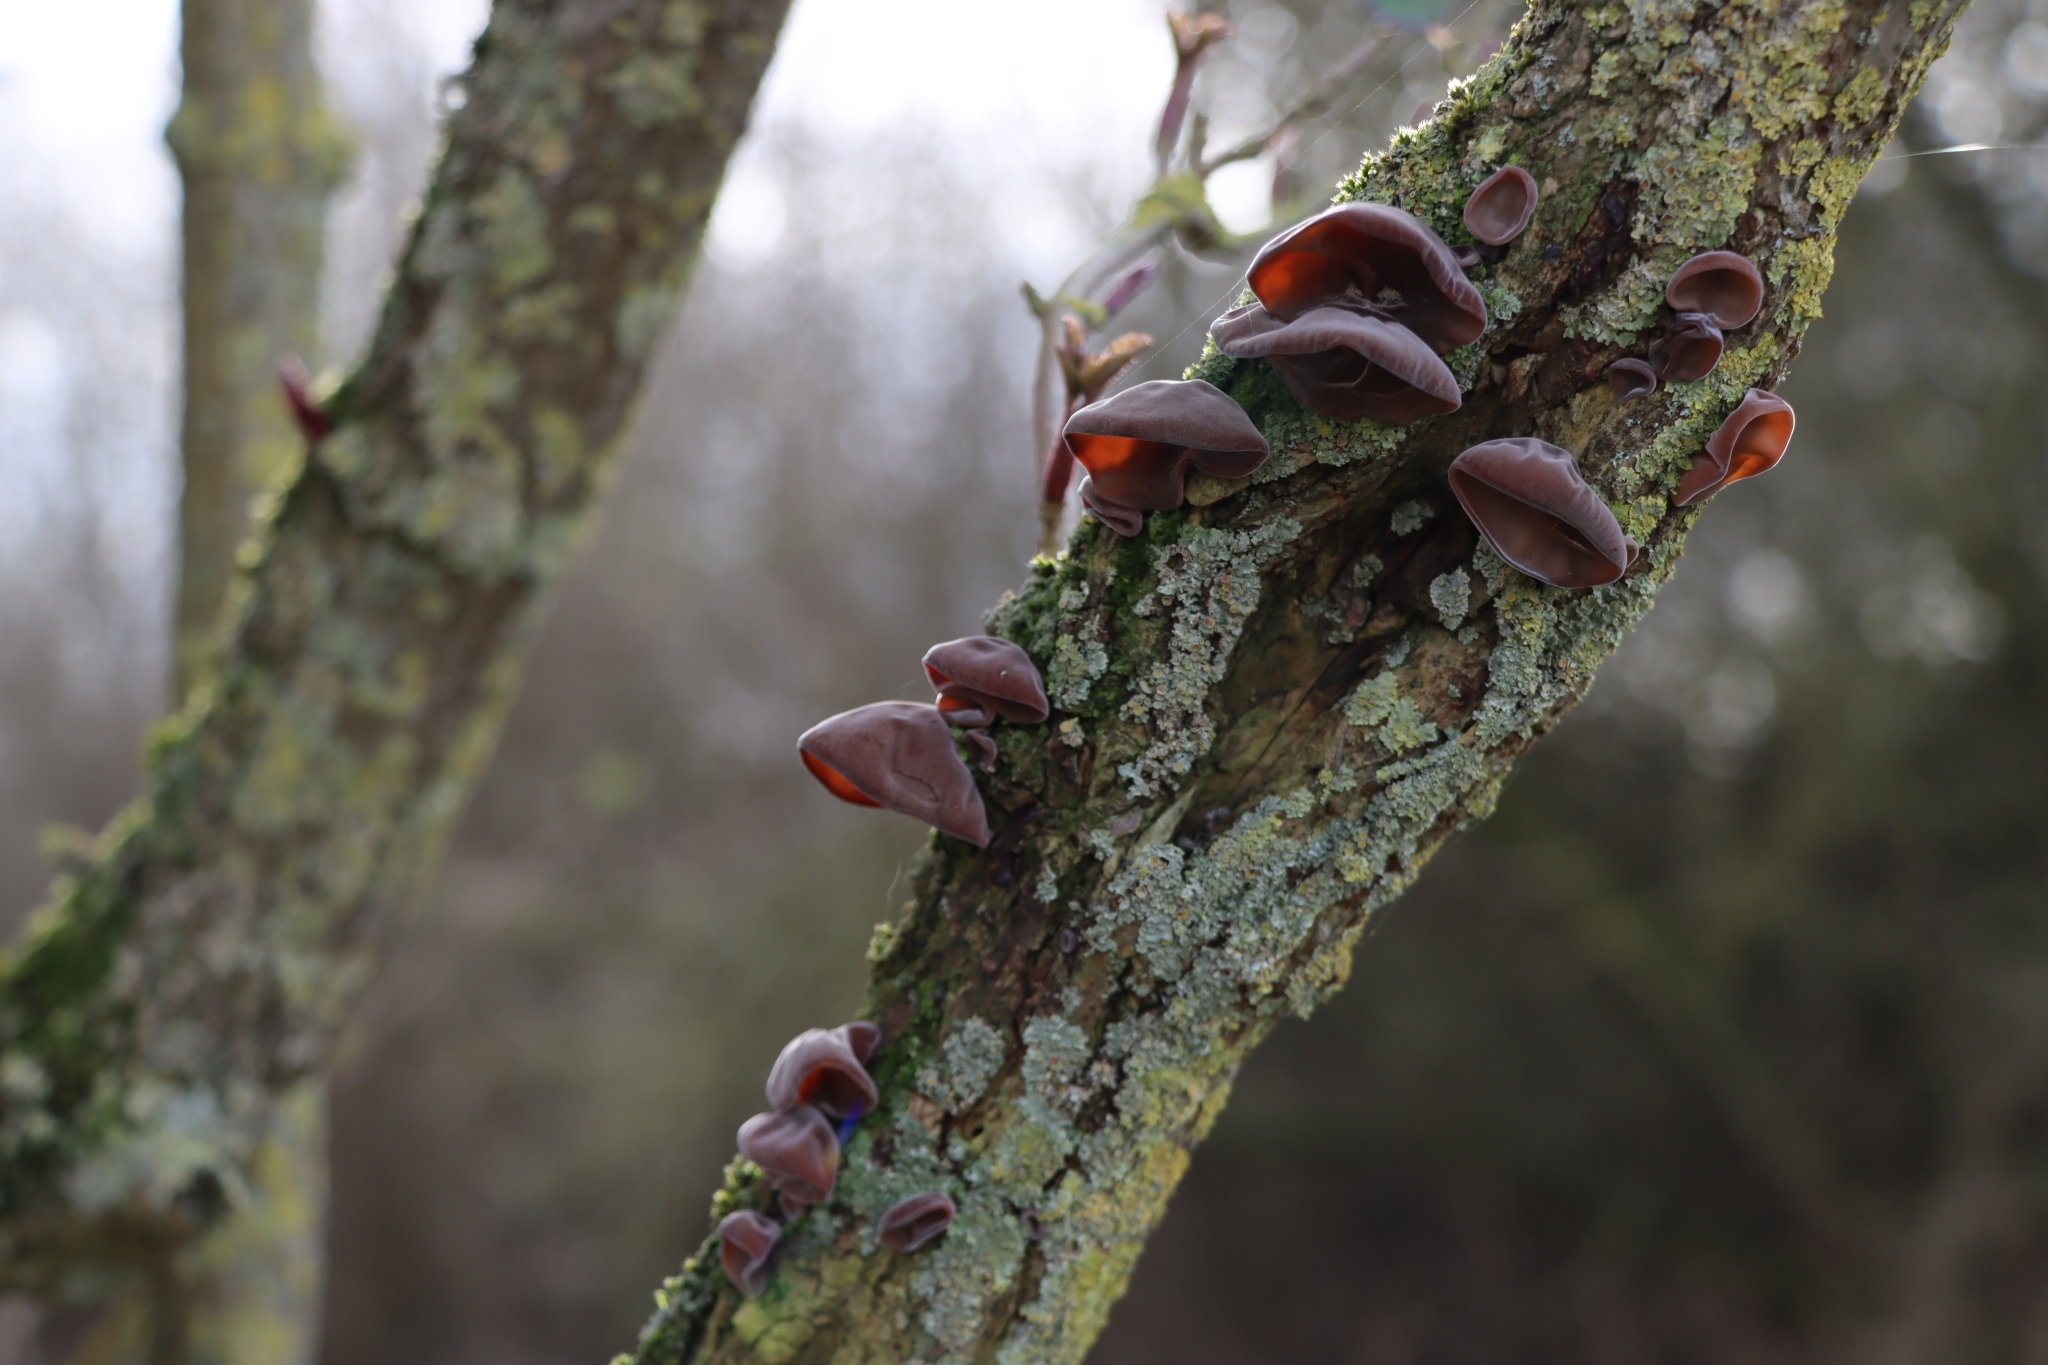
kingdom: Fungi
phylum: Basidiomycota
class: Agaricomycetes
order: Auriculariales
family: Auriculariaceae
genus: Auricularia
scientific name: Auricularia auricula-judae
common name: Jelly ear
